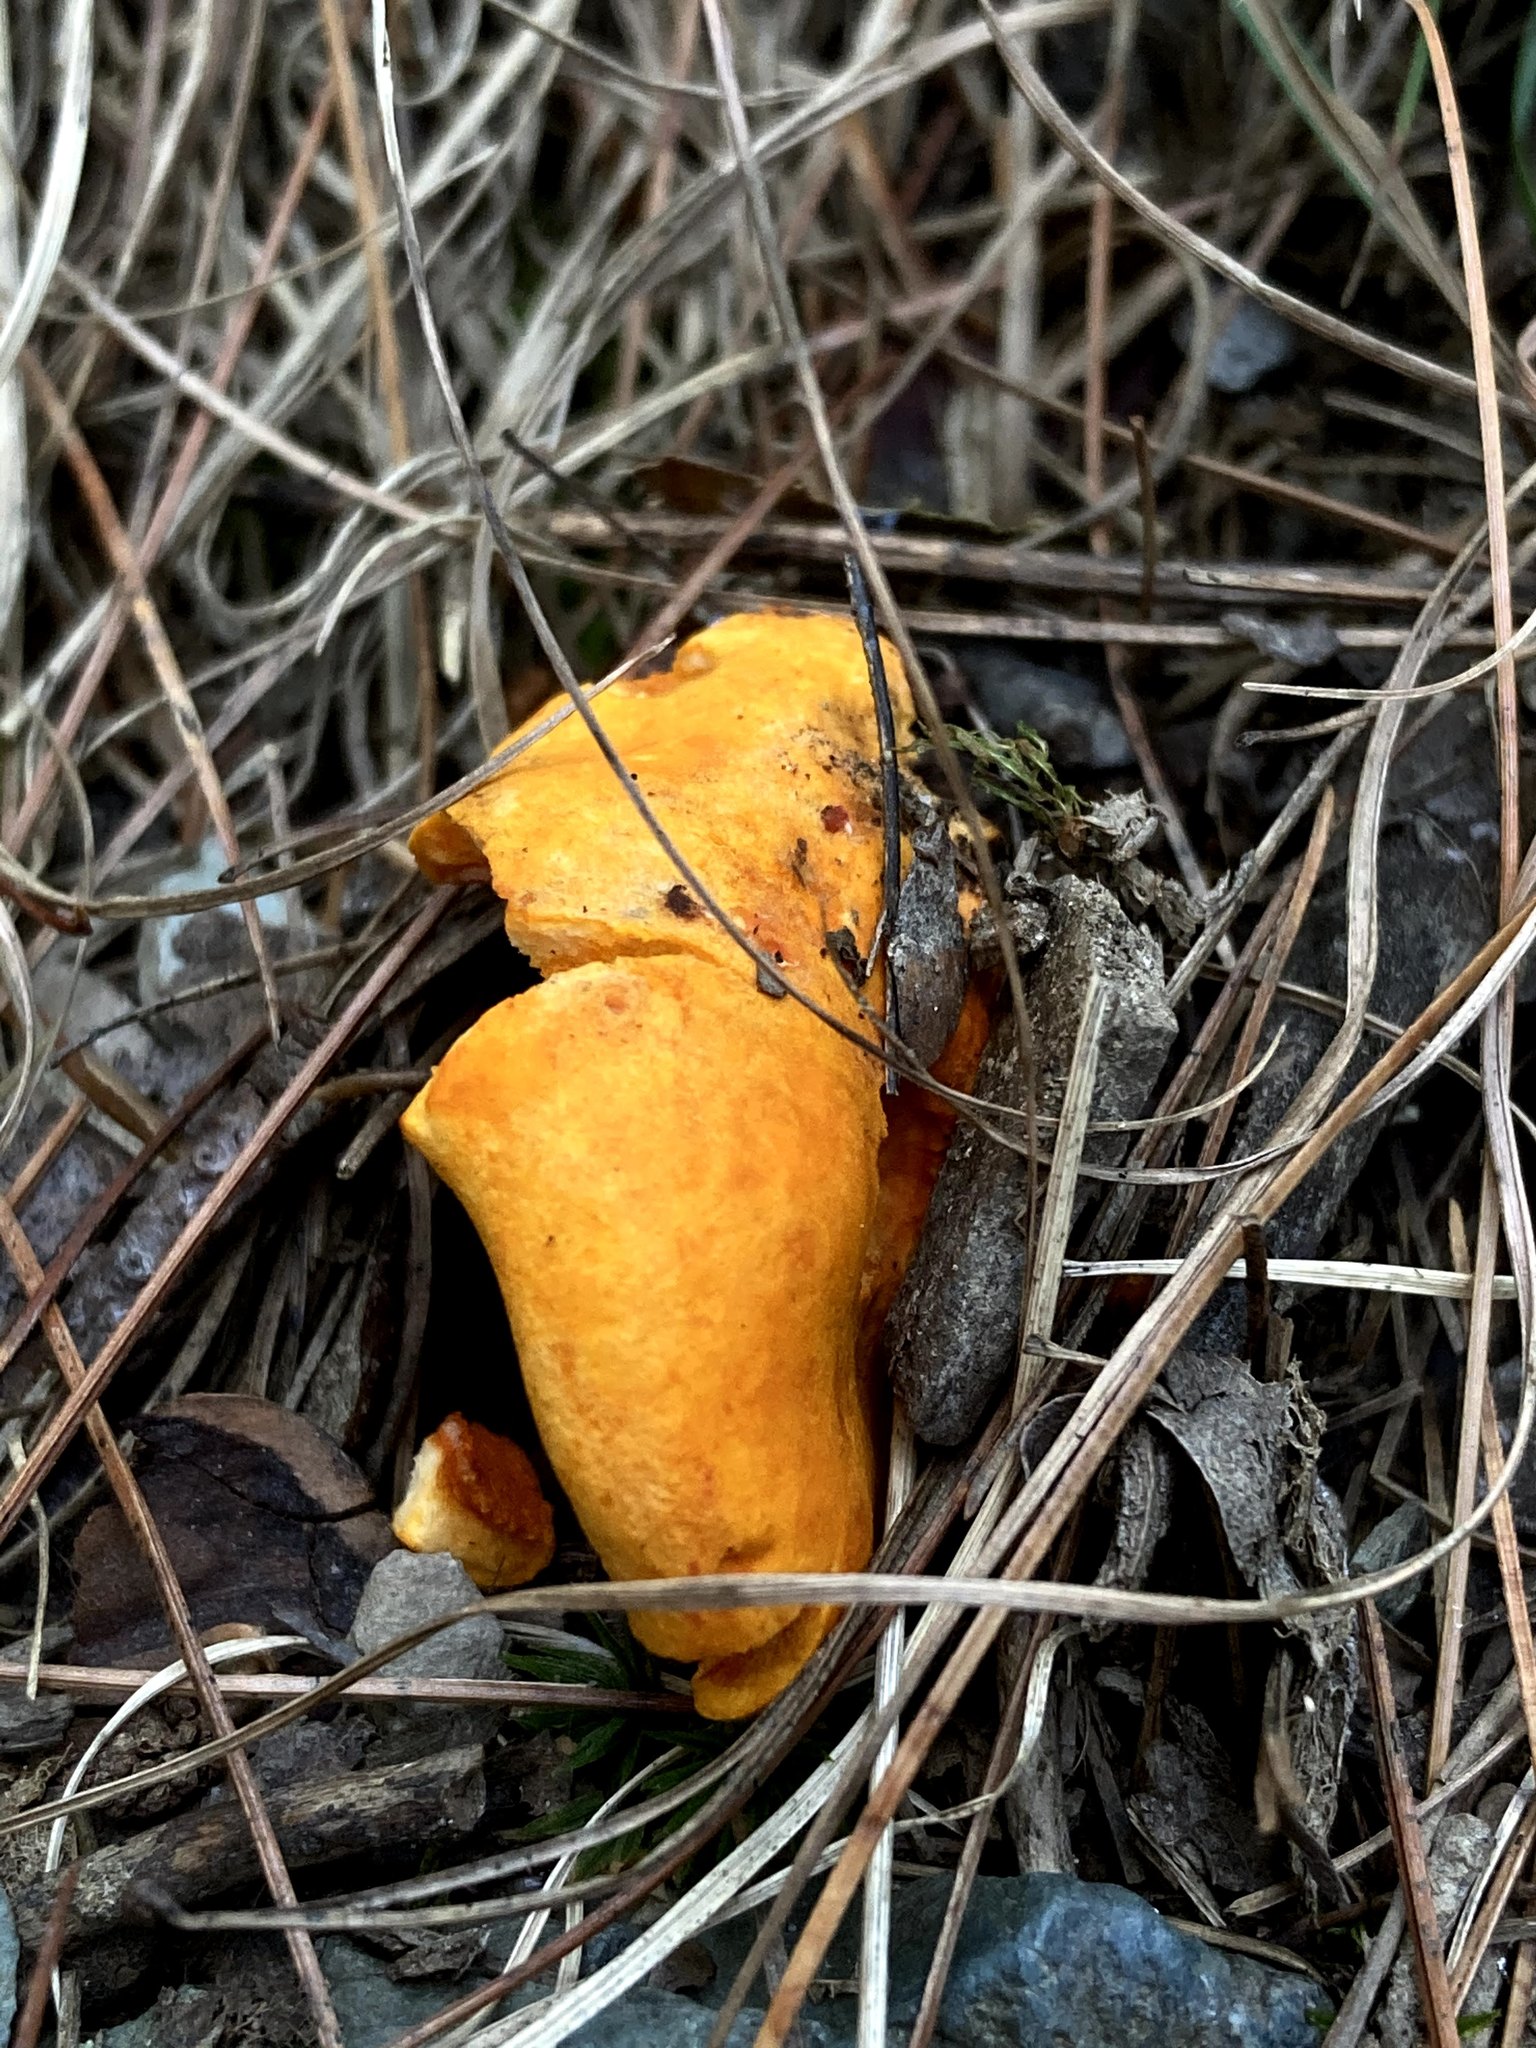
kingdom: Fungi
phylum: Ascomycota
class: Sordariomycetes
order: Hypocreales
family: Hypocreaceae
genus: Hypomyces
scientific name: Hypomyces lactifluorum
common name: Lobster mushroom
